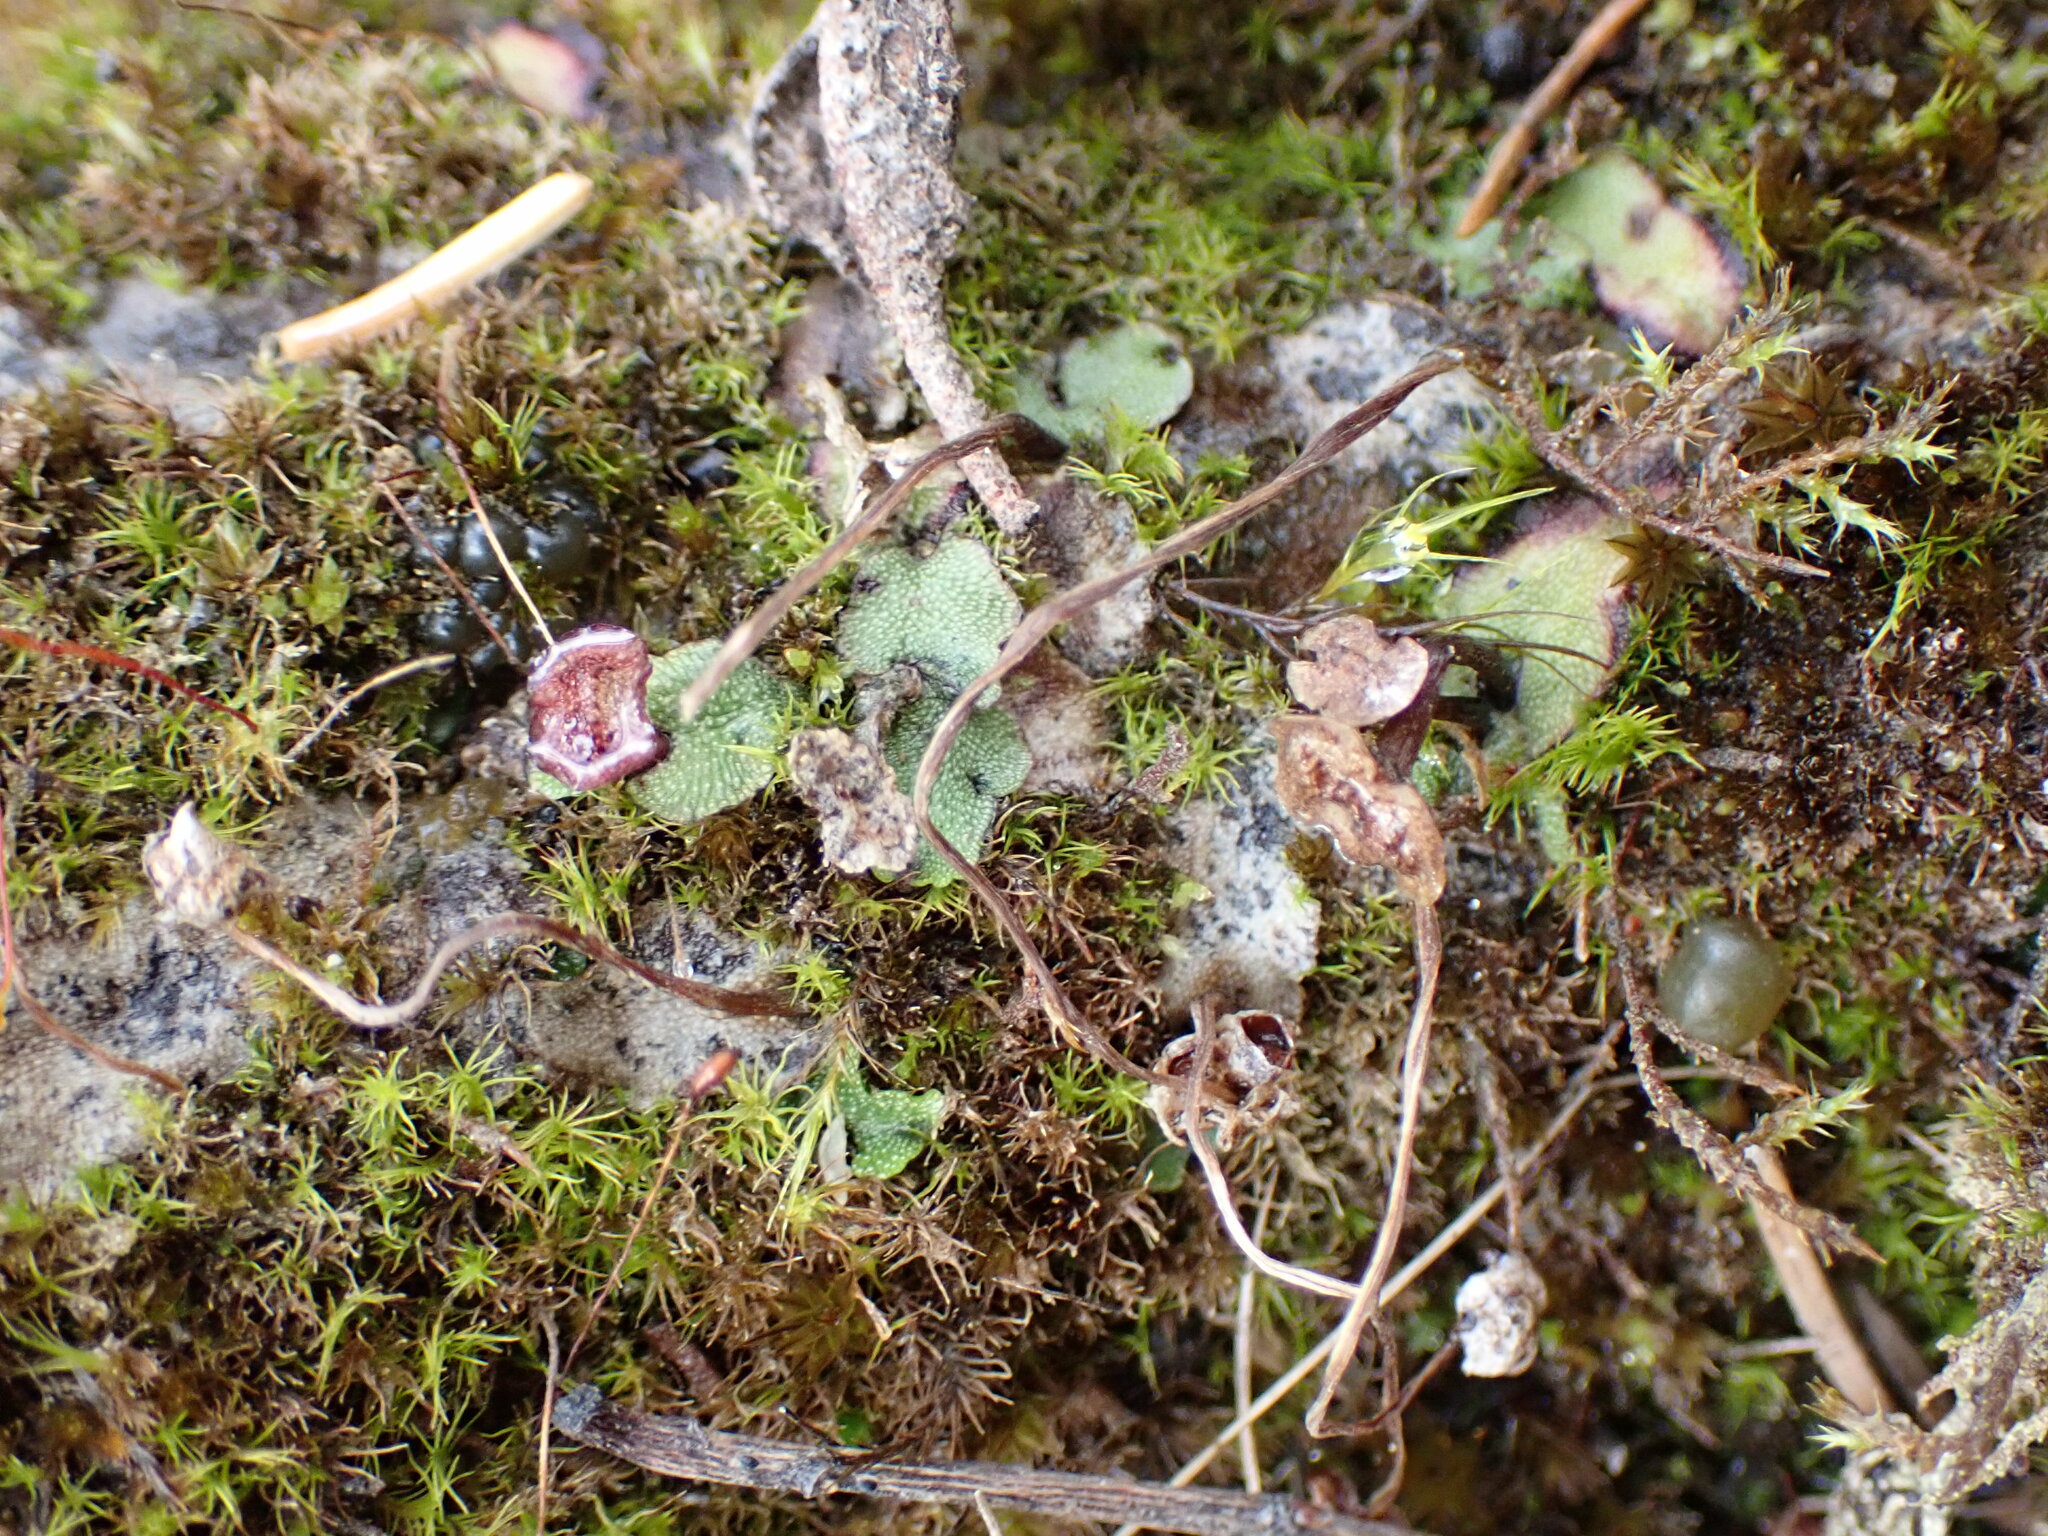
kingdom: Plantae
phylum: Marchantiophyta
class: Marchantiopsida
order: Marchantiales
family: Marchantiaceae
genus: Marchantia
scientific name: Marchantia quadrata
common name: Narrow mushroom-headed liverwort
